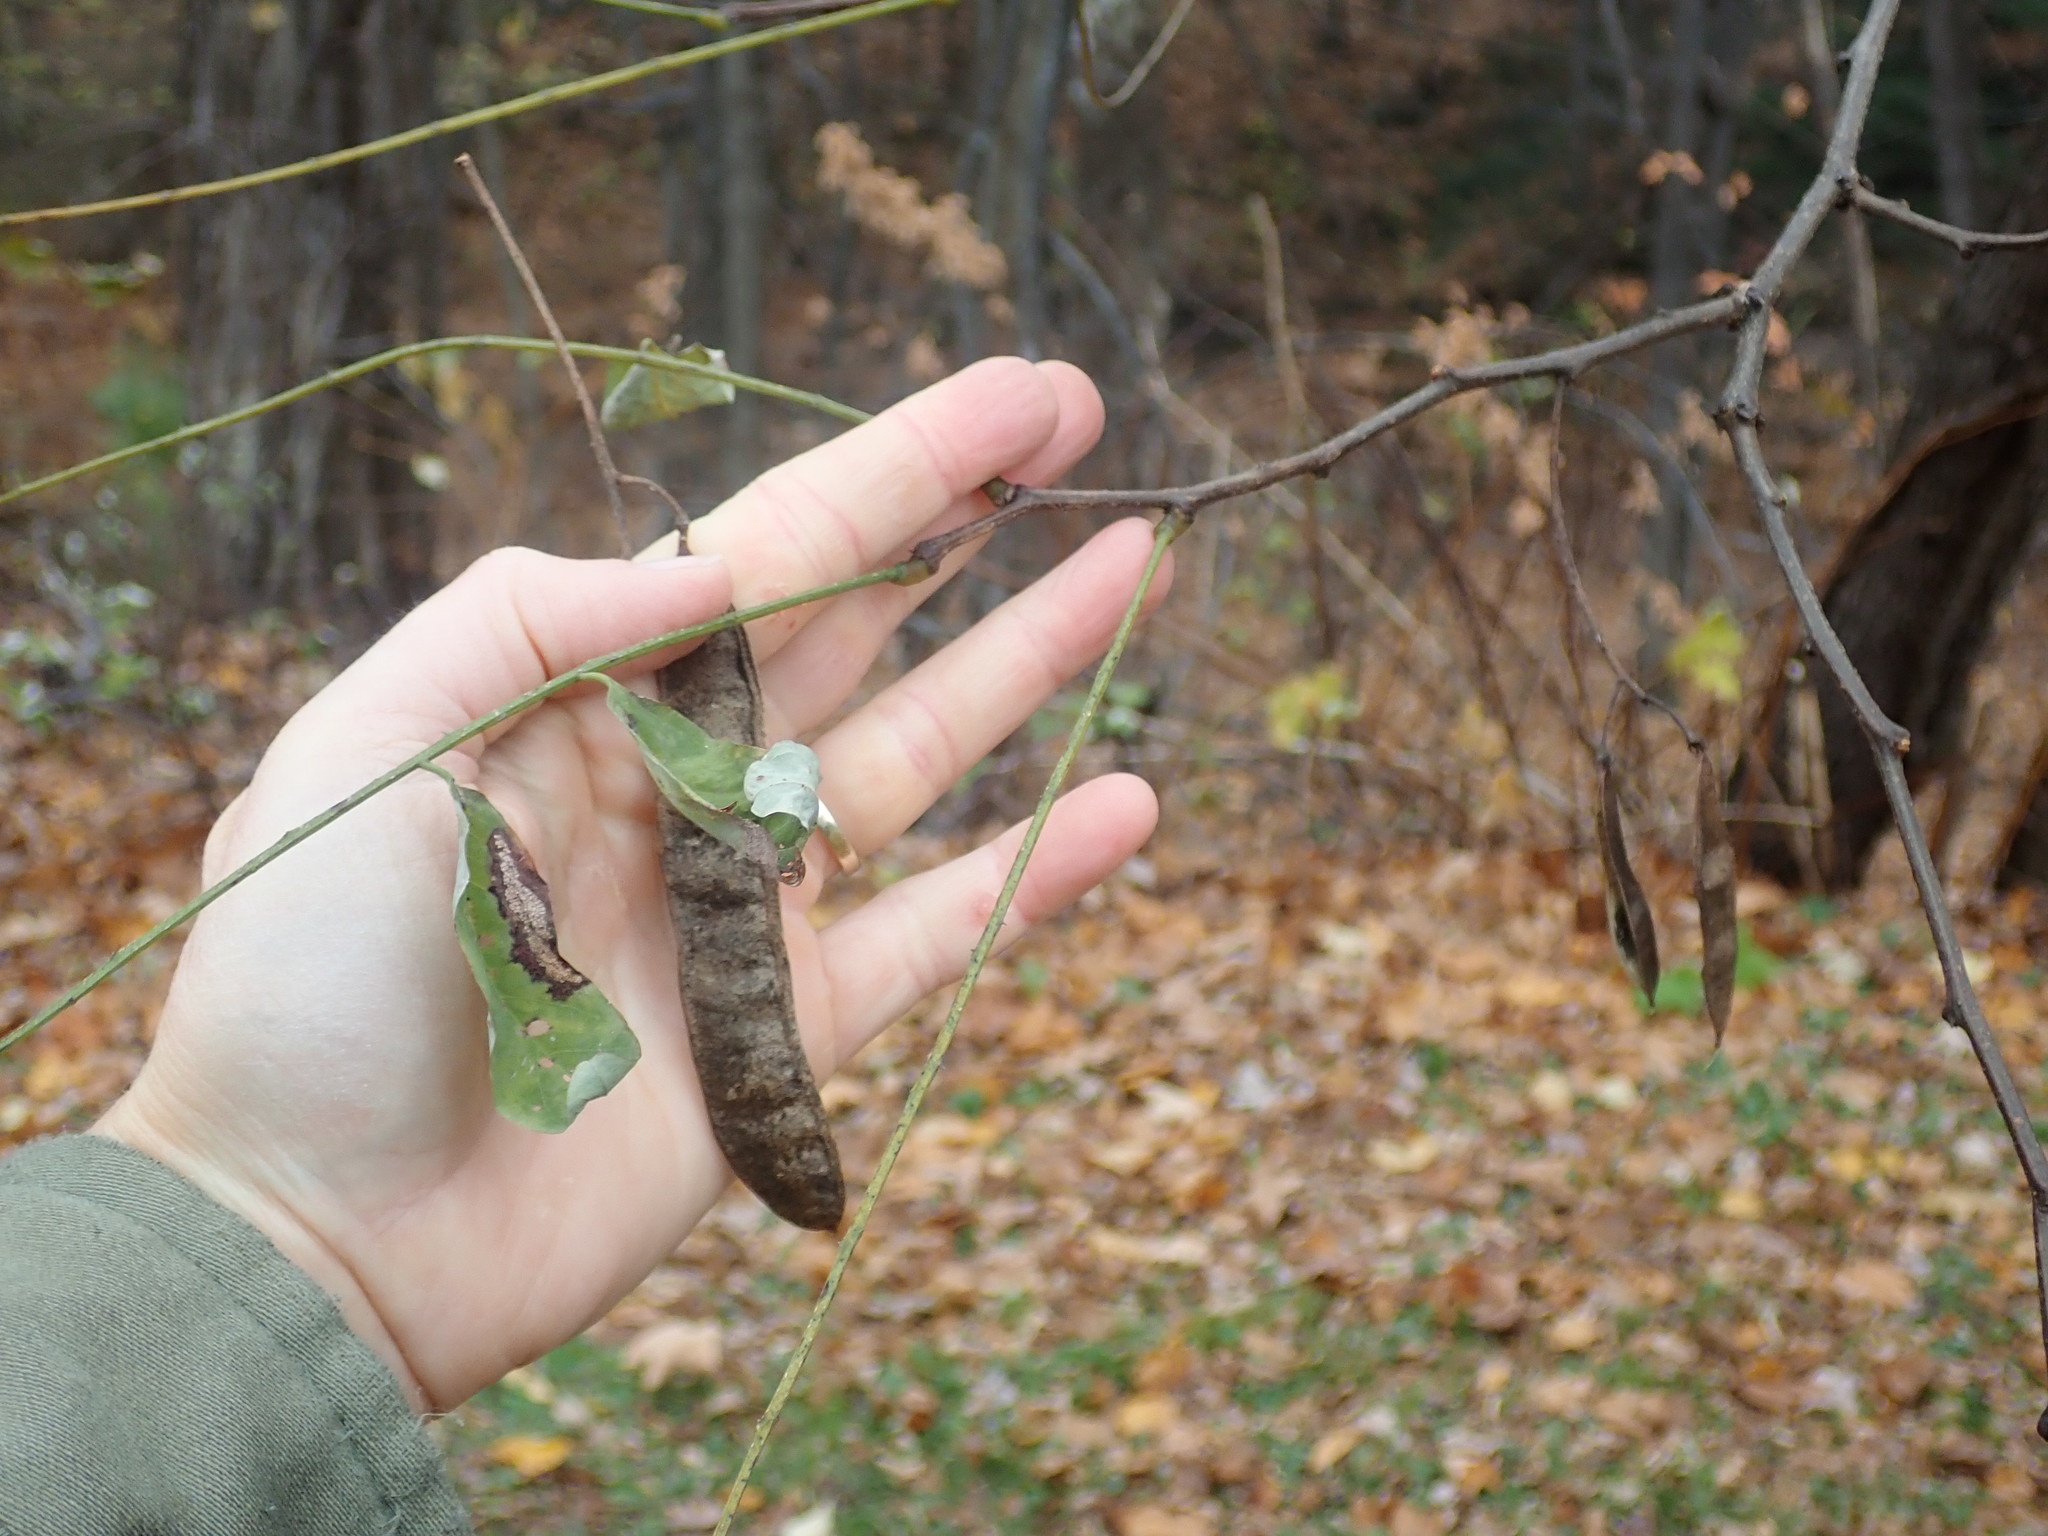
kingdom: Plantae
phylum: Tracheophyta
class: Magnoliopsida
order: Fabales
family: Fabaceae
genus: Robinia
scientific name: Robinia pseudoacacia
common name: Black locust
